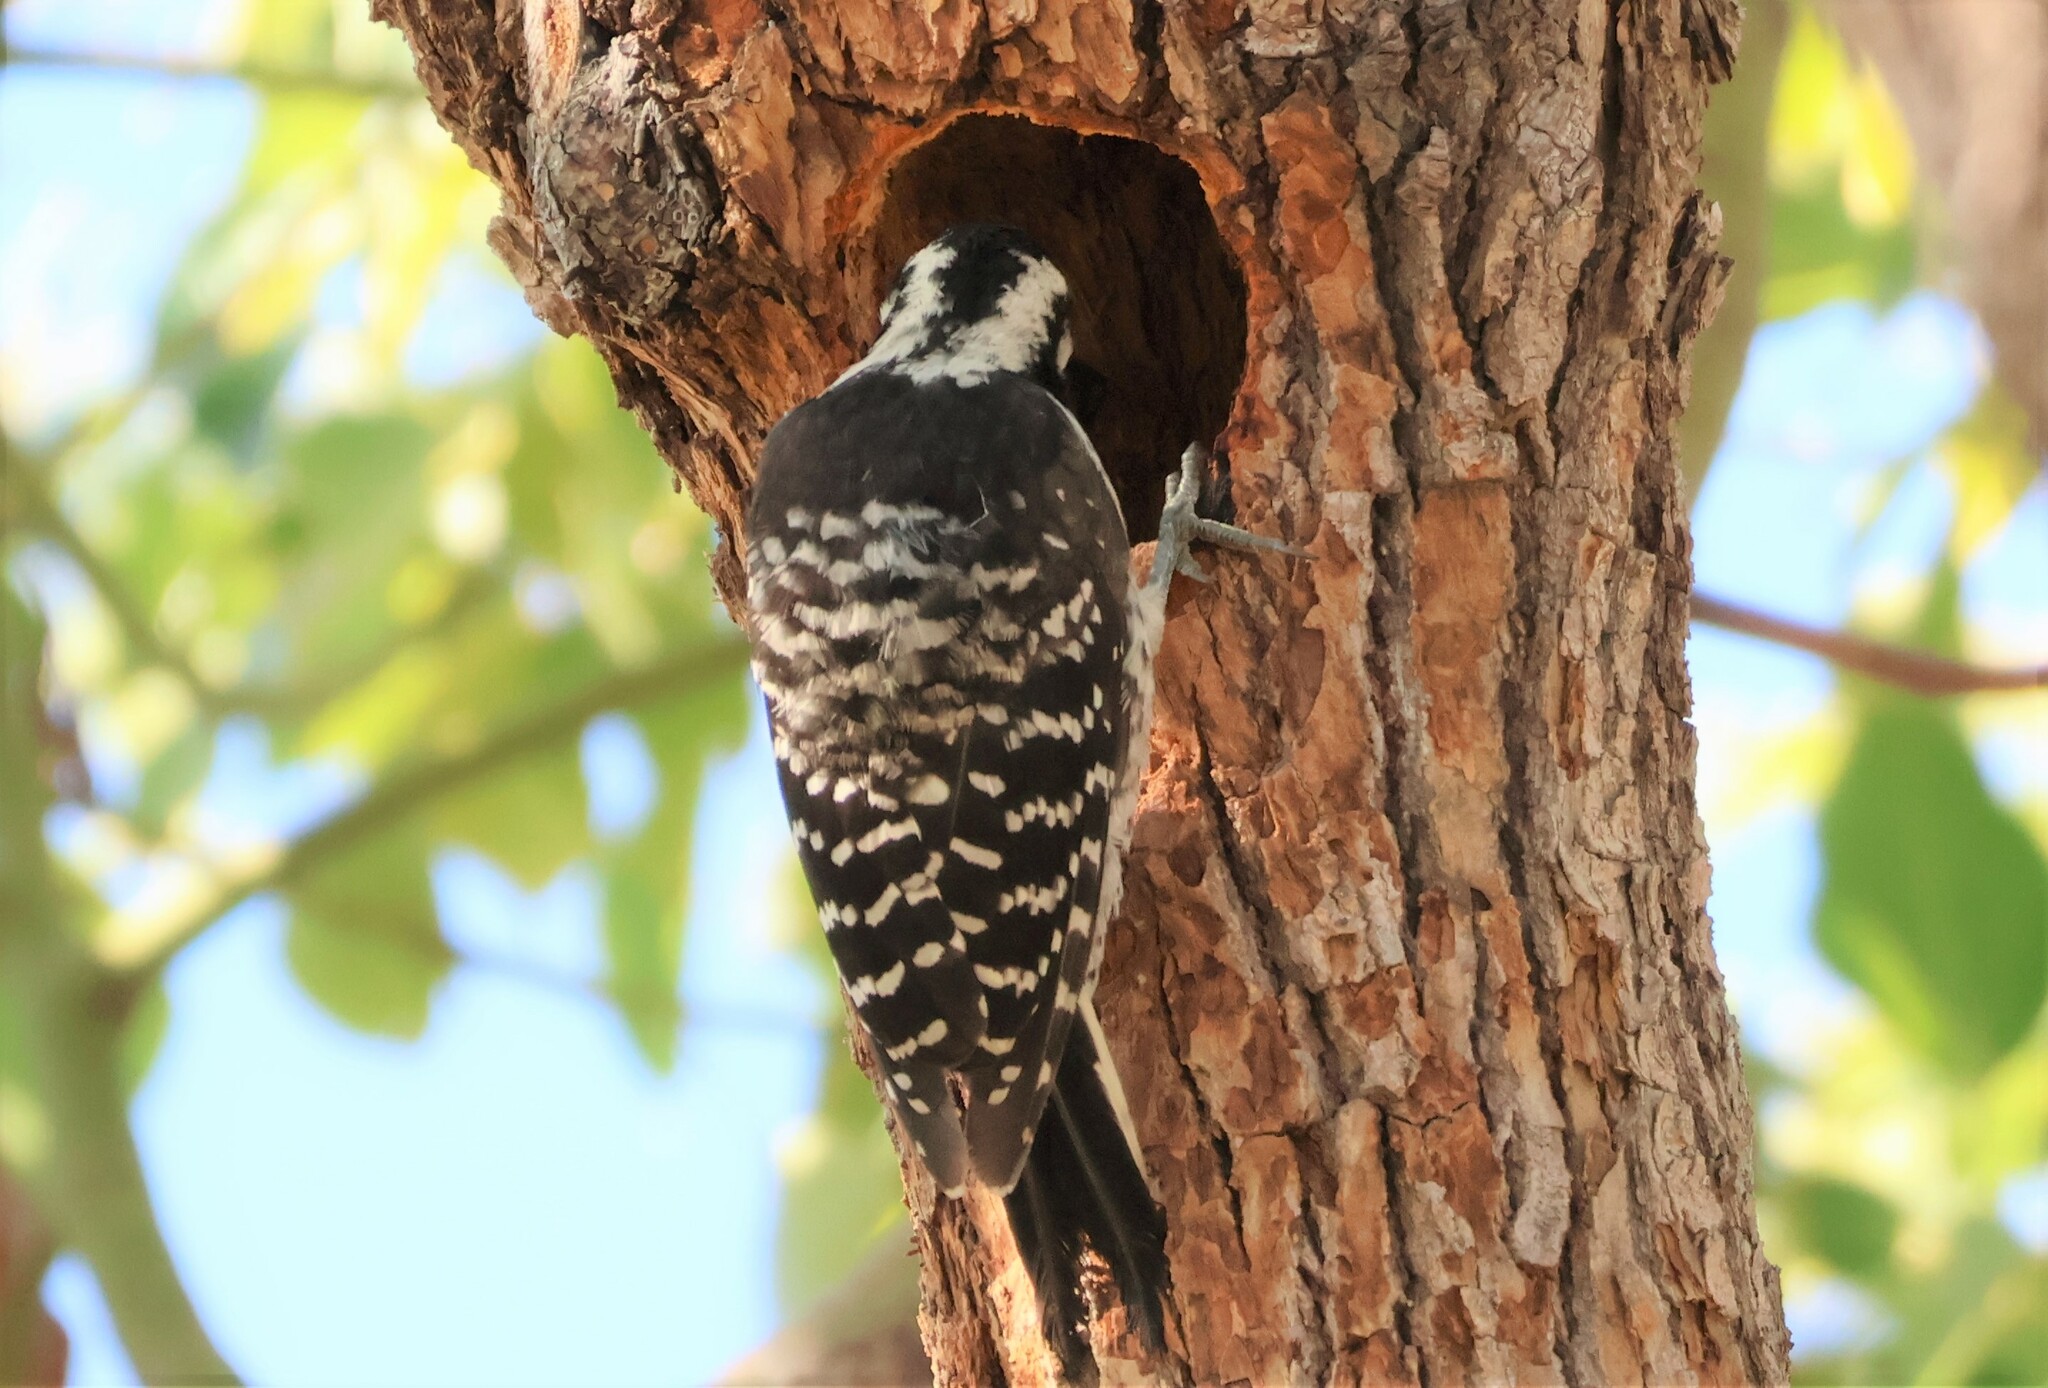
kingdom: Animalia
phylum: Chordata
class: Aves
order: Piciformes
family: Picidae
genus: Dryobates
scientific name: Dryobates nuttallii
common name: Nuttall's woodpecker
